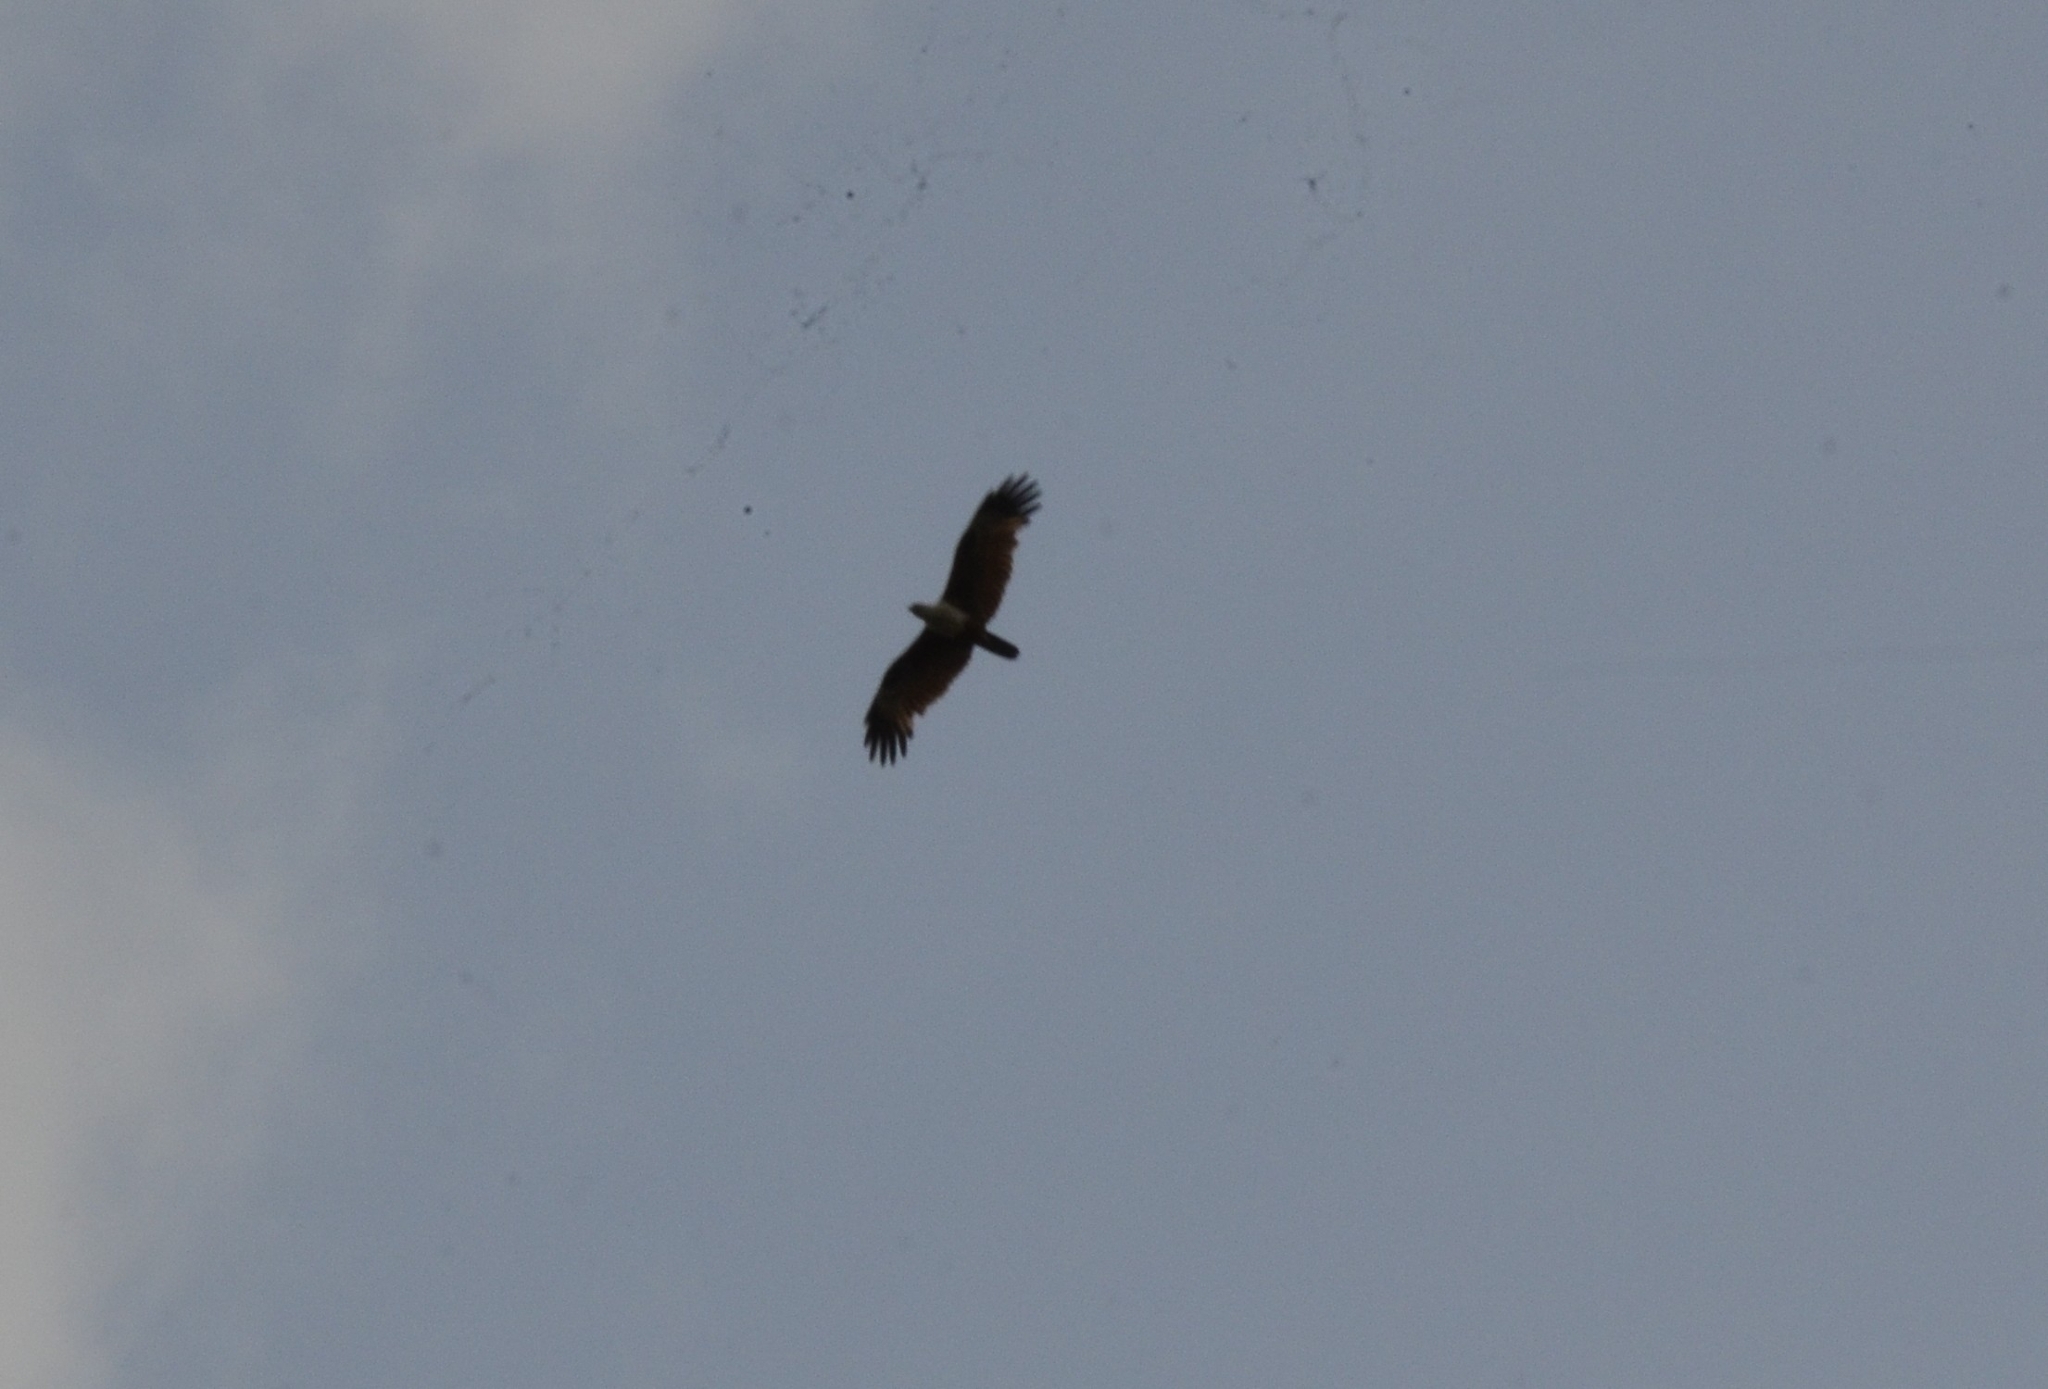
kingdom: Animalia
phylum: Chordata
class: Aves
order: Accipitriformes
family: Accipitridae
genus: Haliastur
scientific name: Haliastur indus
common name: Brahminy kite
